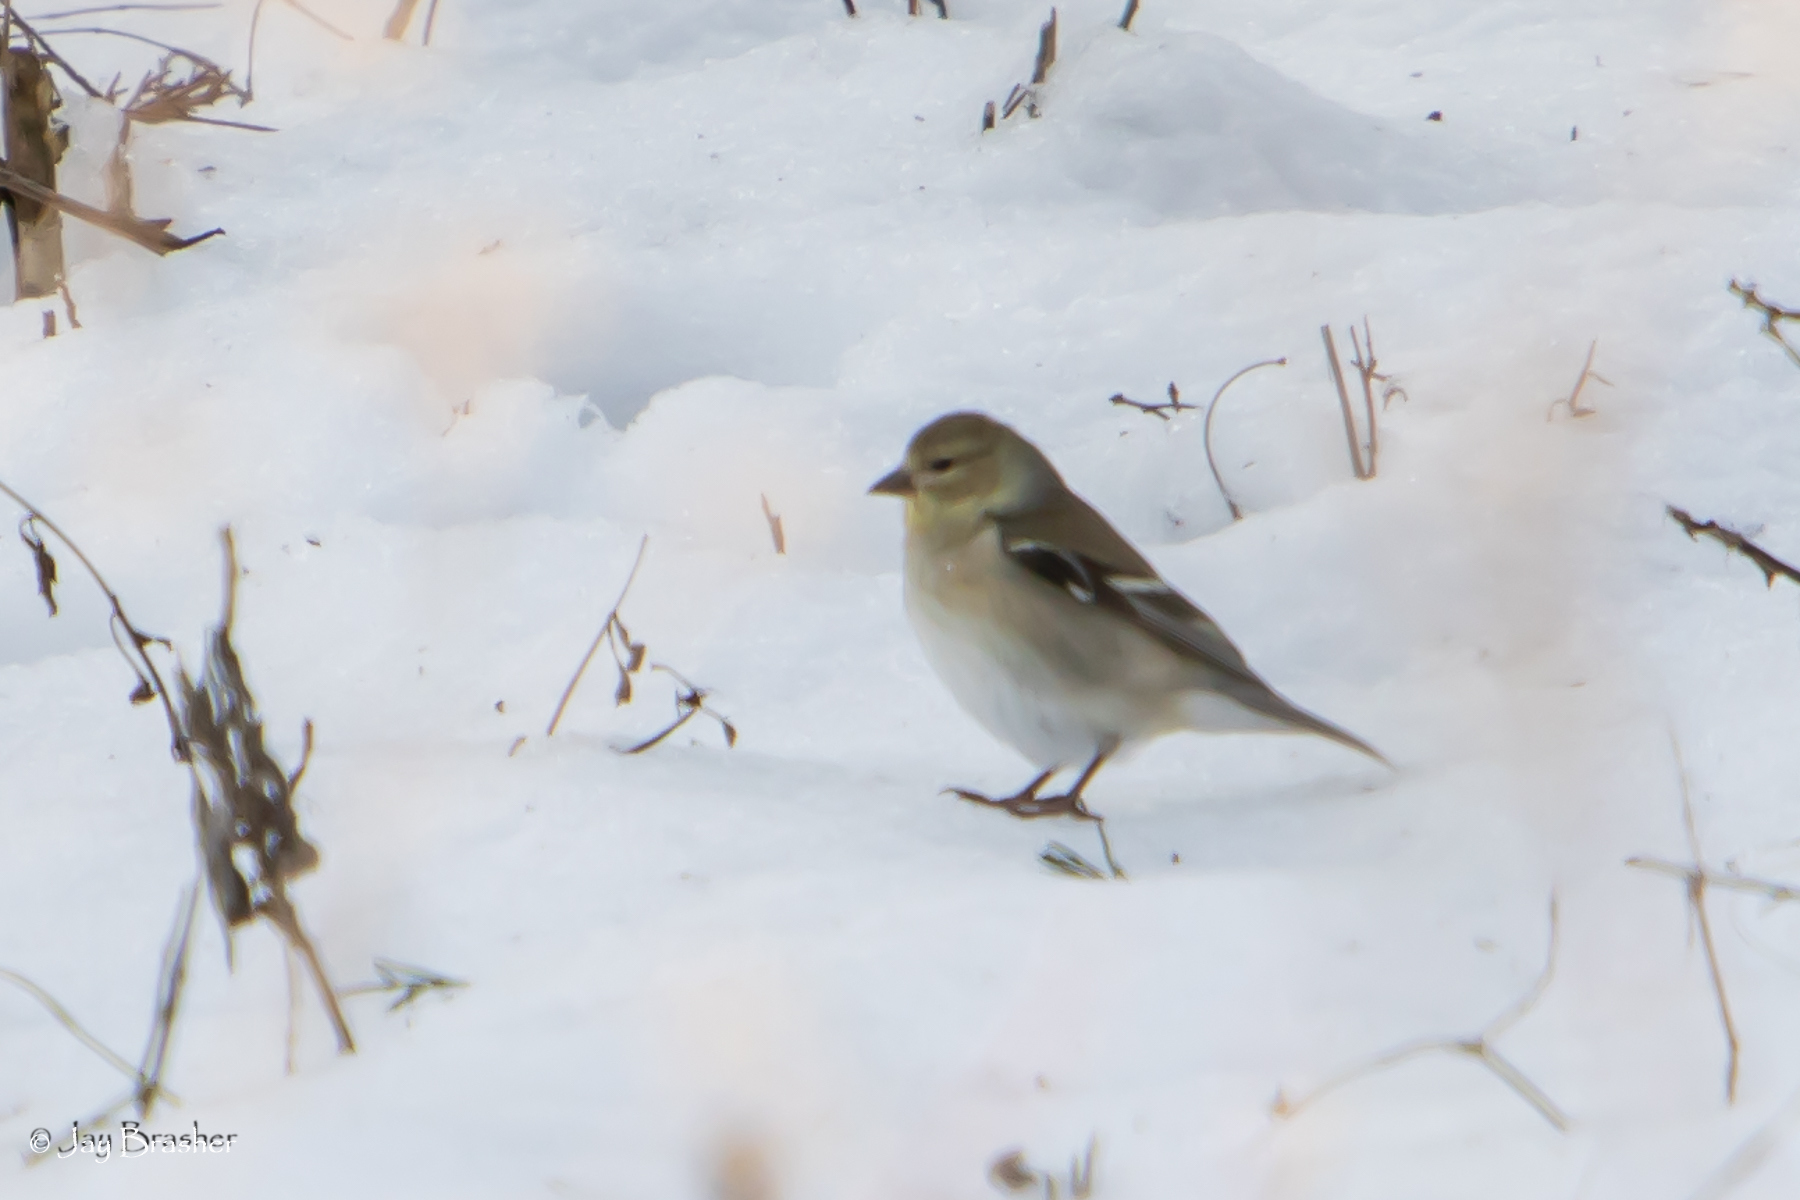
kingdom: Animalia
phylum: Chordata
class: Aves
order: Passeriformes
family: Fringillidae
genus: Spinus
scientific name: Spinus tristis
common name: American goldfinch
